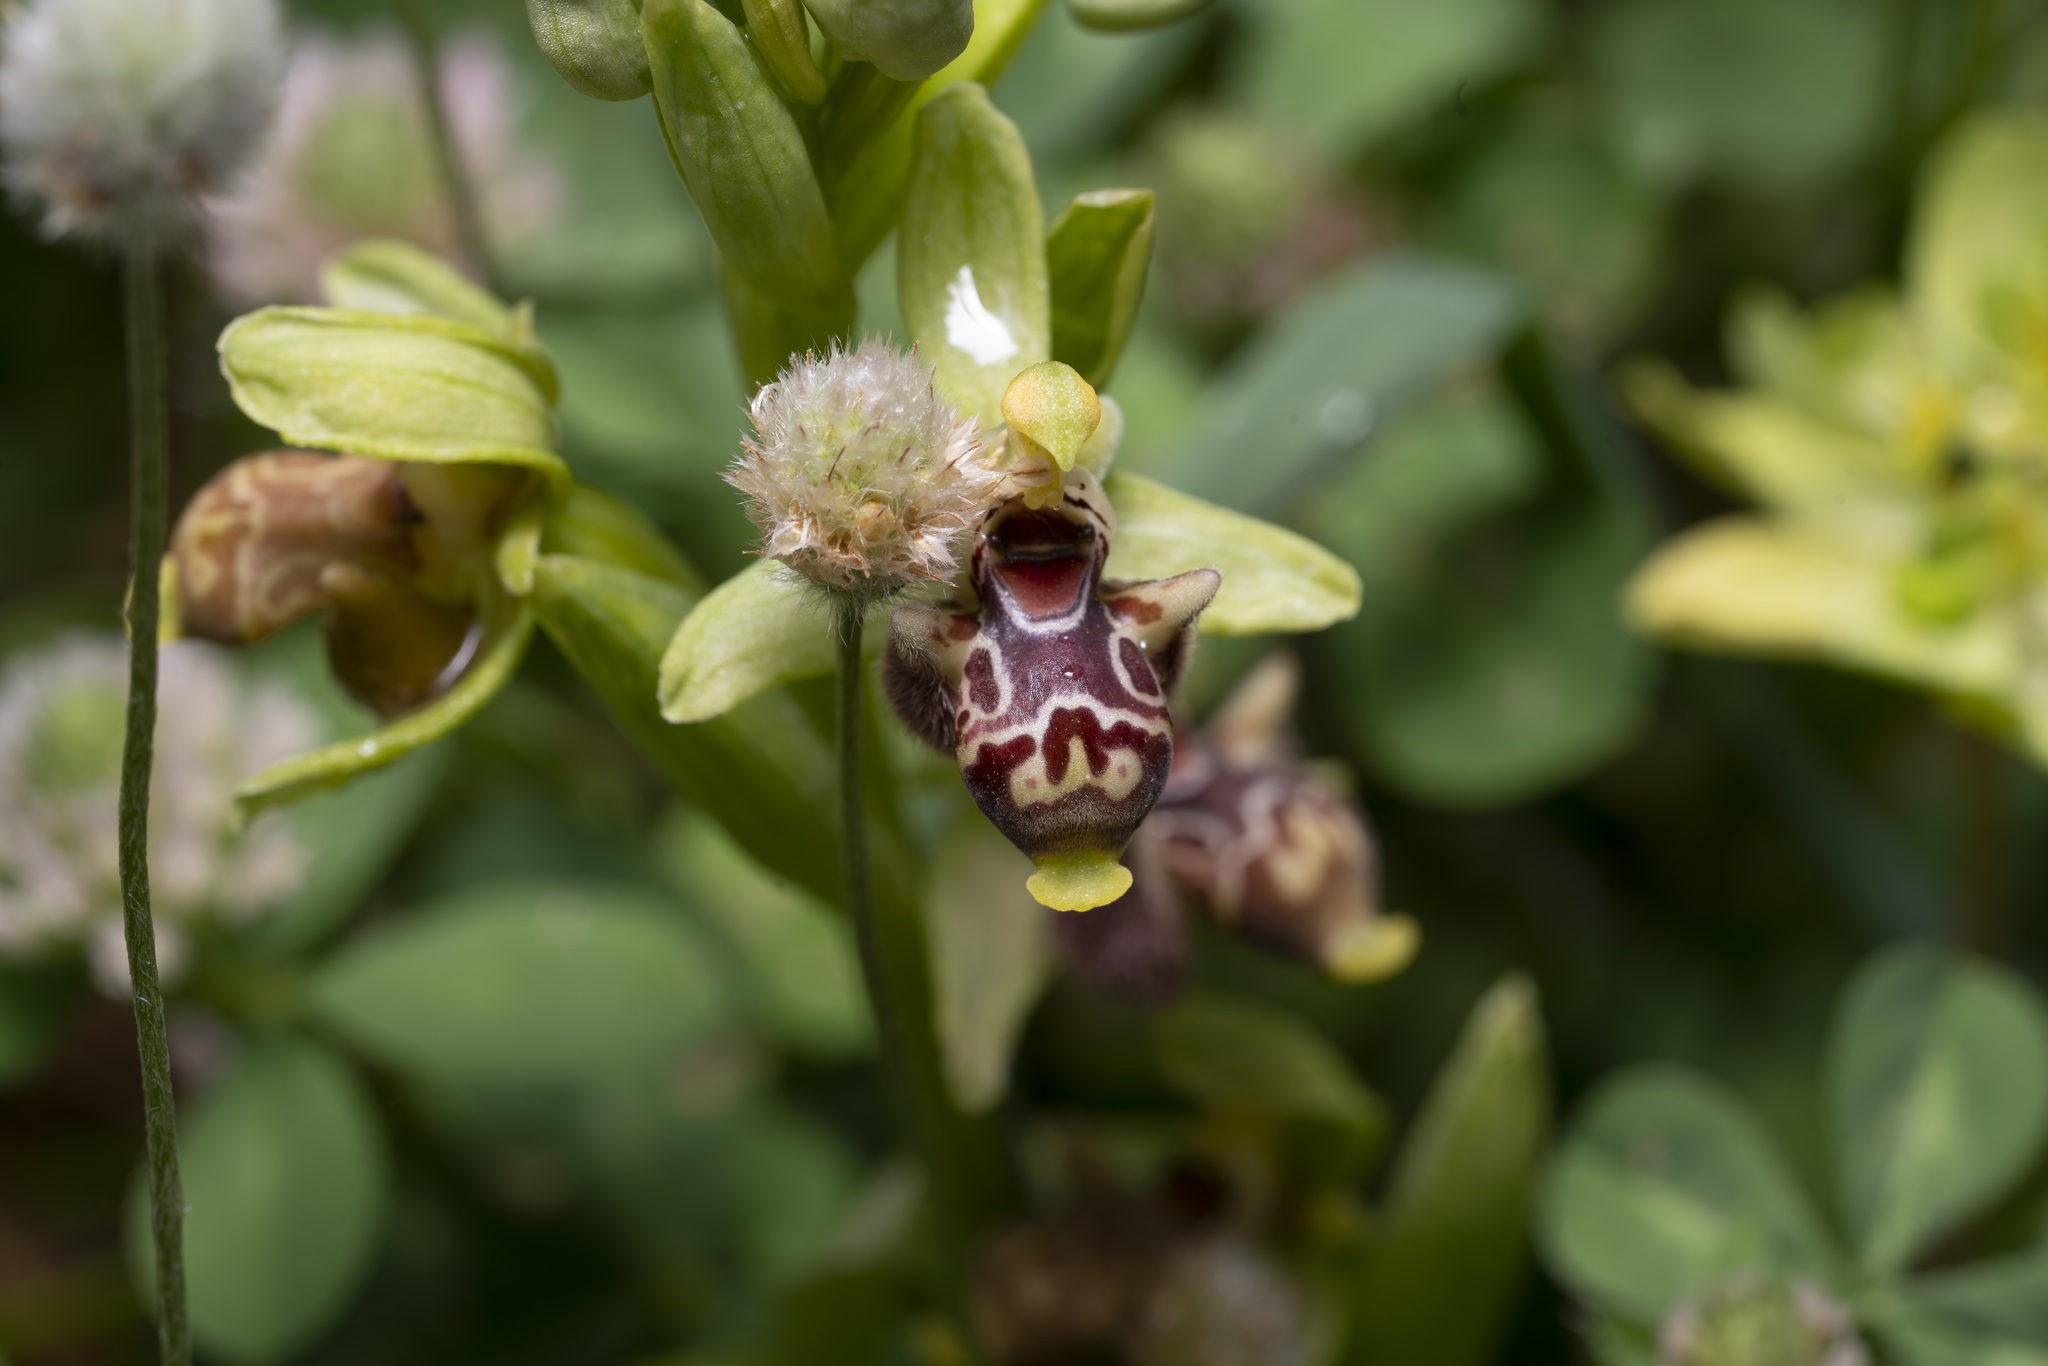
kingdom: Plantae
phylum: Tracheophyta
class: Liliopsida
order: Asparagales
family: Orchidaceae
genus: Ophrys
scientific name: Ophrys scolopax
